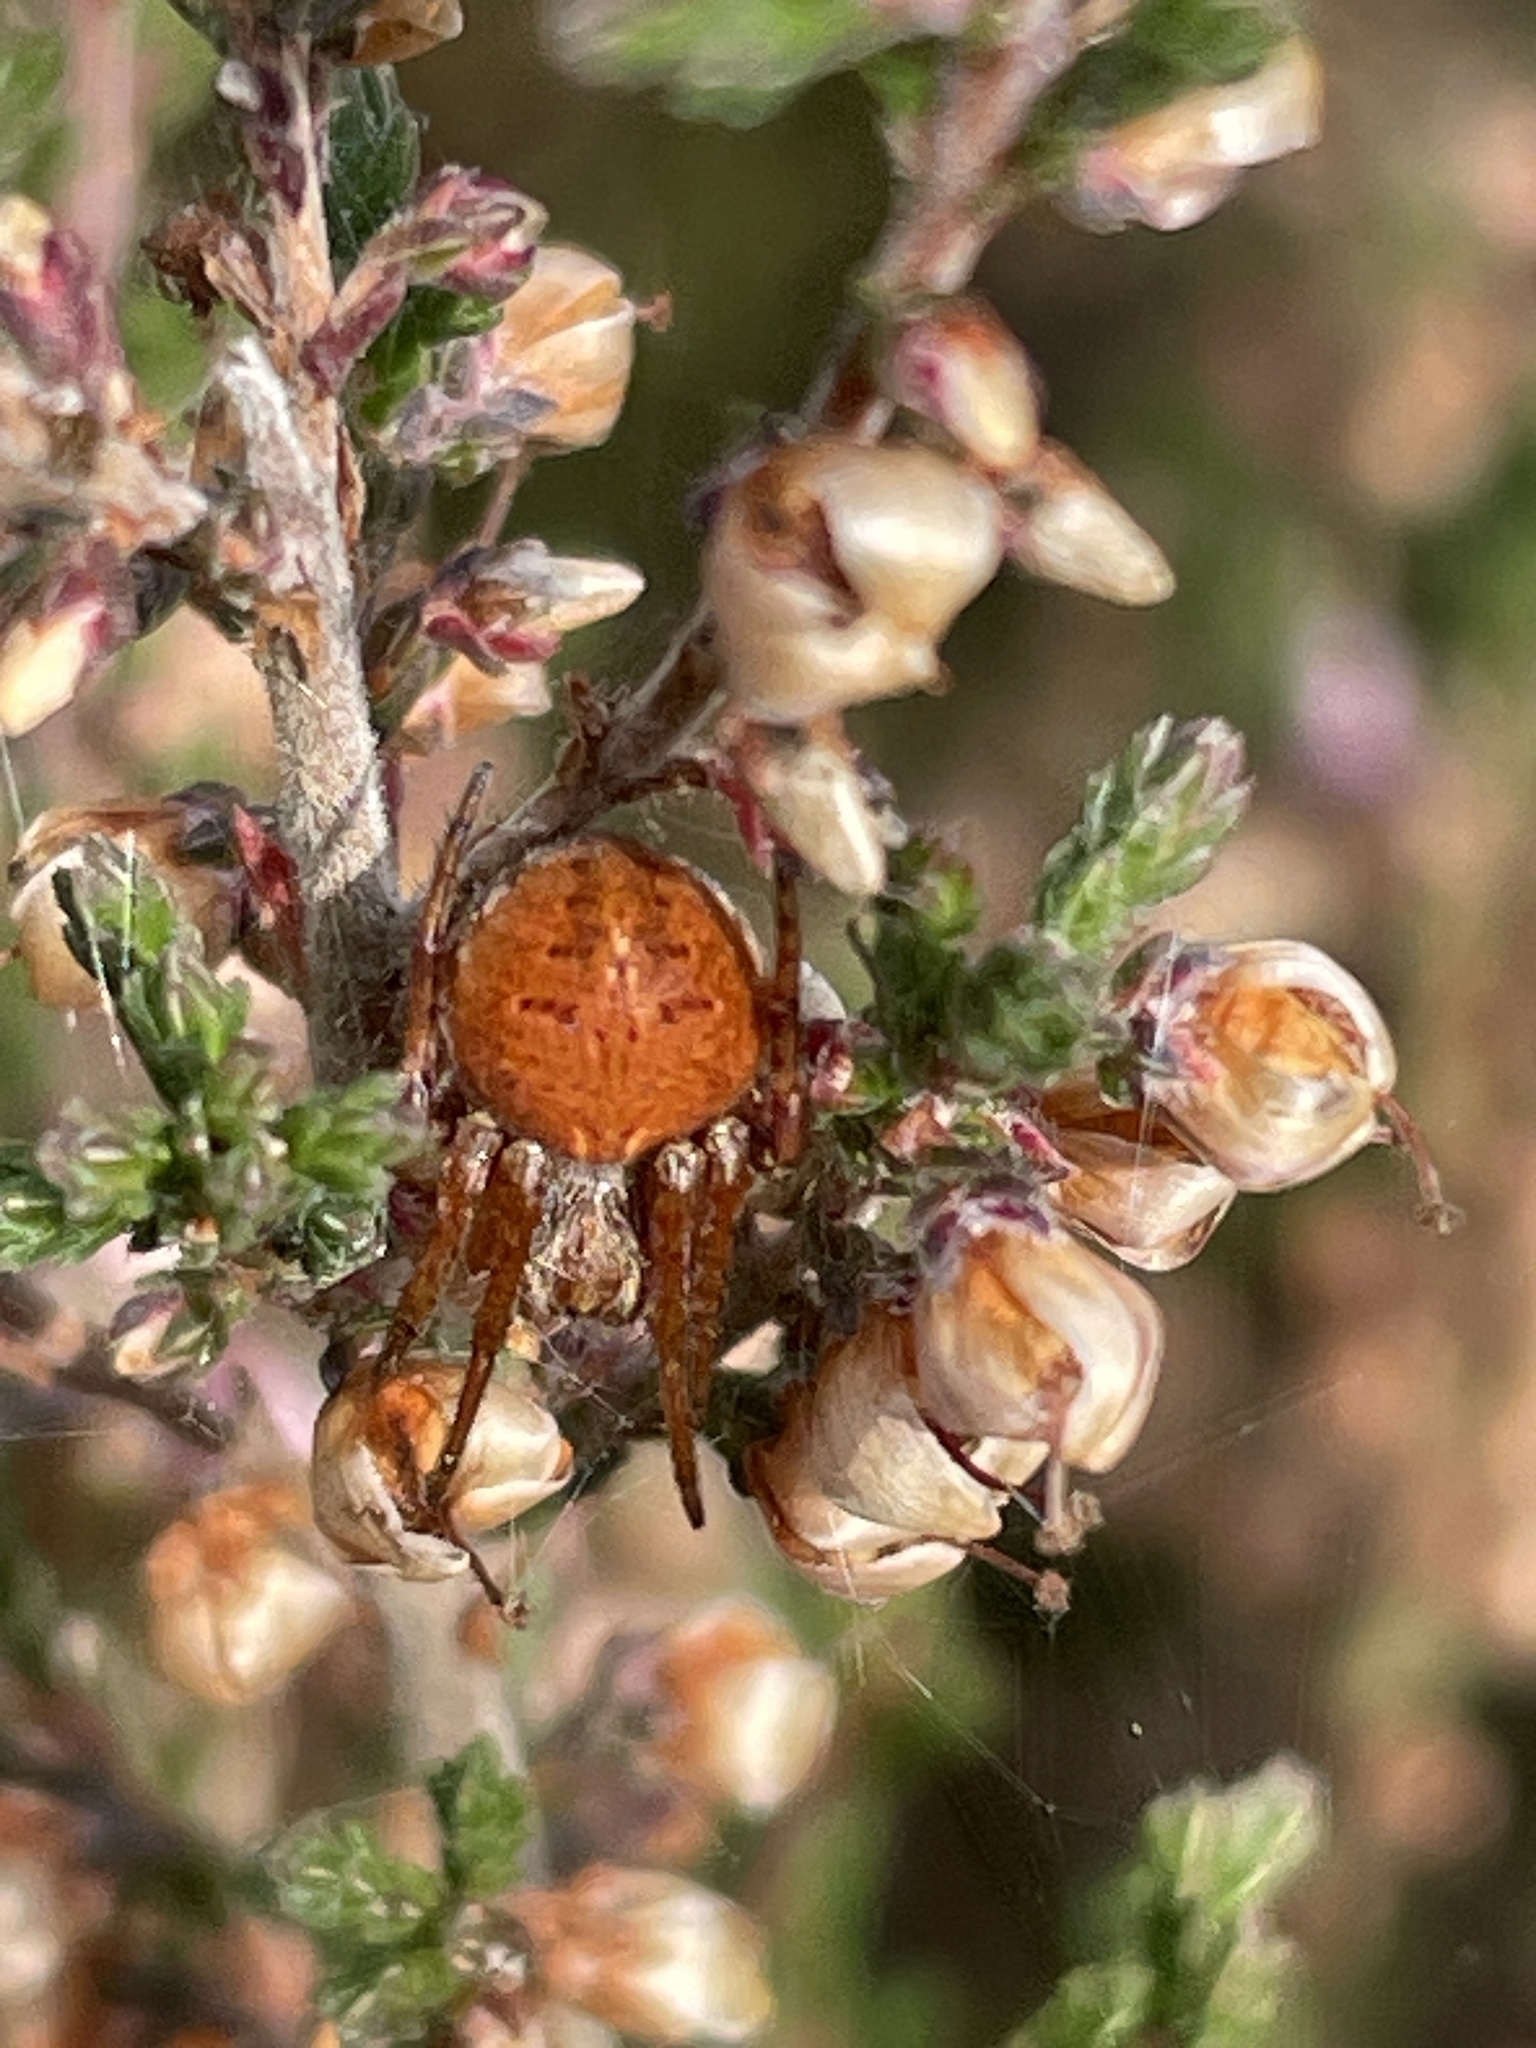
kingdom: Animalia
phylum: Arthropoda
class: Arachnida
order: Araneae
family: Araneidae
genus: Agalenatea
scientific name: Agalenatea redii
